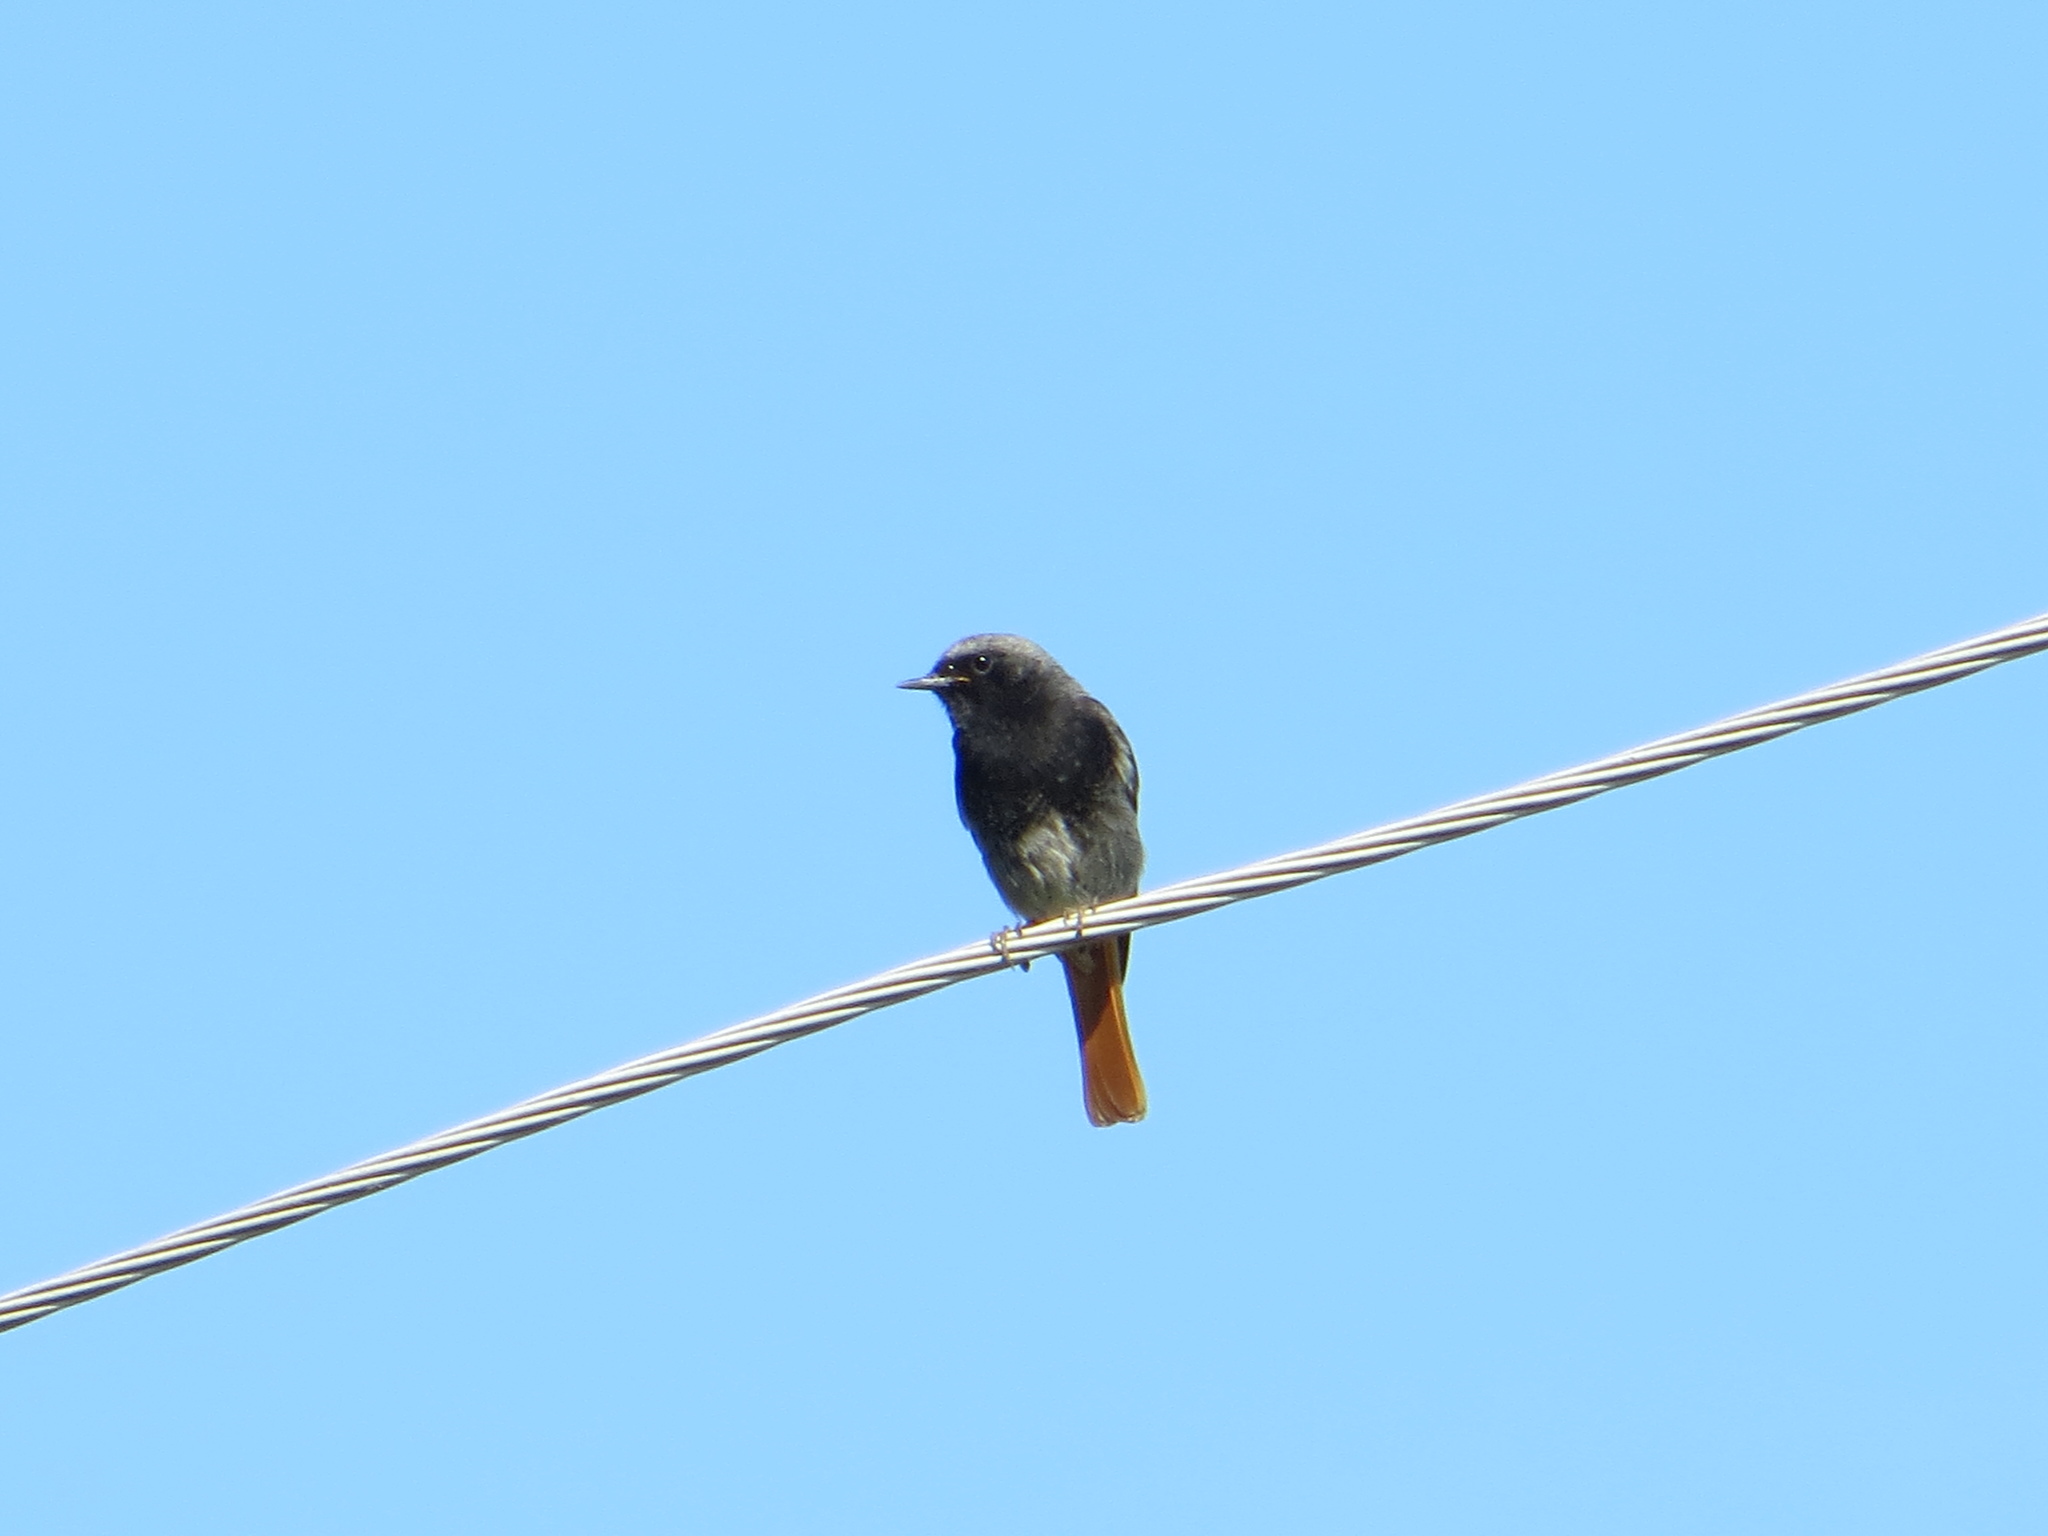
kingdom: Animalia
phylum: Chordata
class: Aves
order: Passeriformes
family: Muscicapidae
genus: Phoenicurus
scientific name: Phoenicurus ochruros
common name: Black redstart
